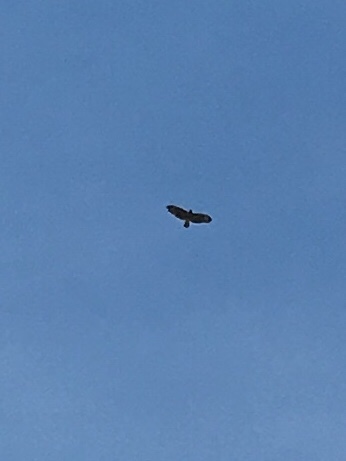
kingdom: Animalia
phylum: Chordata
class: Aves
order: Accipitriformes
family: Accipitridae
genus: Buteo
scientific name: Buteo
